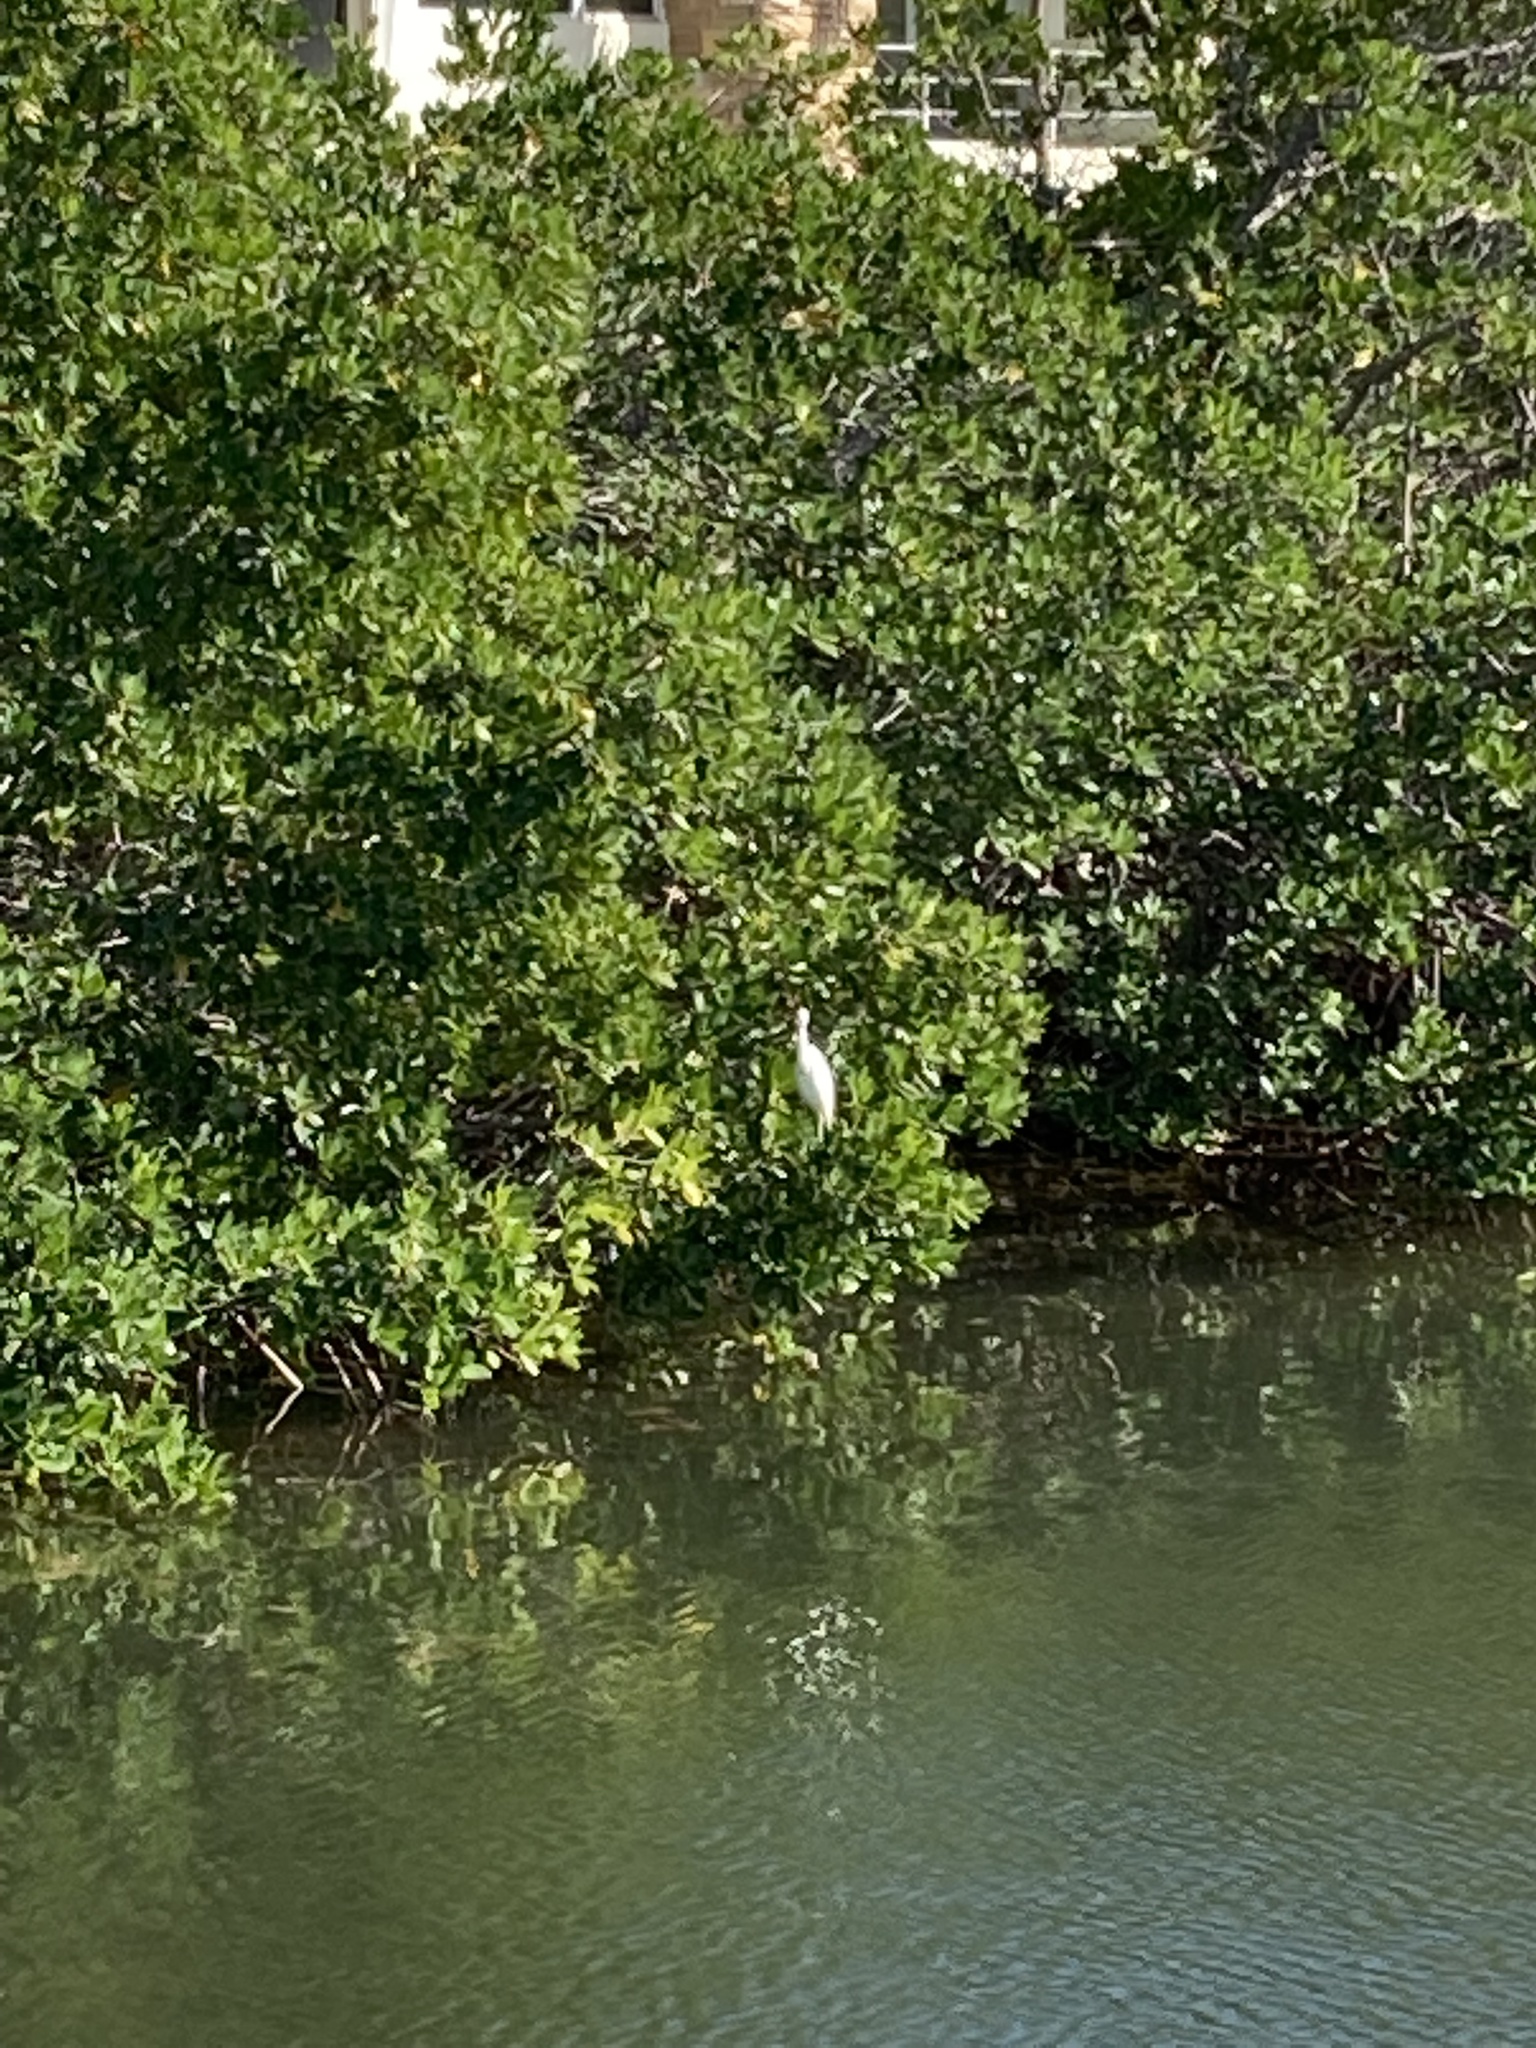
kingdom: Animalia
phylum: Chordata
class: Aves
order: Pelecaniformes
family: Ardeidae
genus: Egretta
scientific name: Egretta caerulea
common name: Little blue heron
